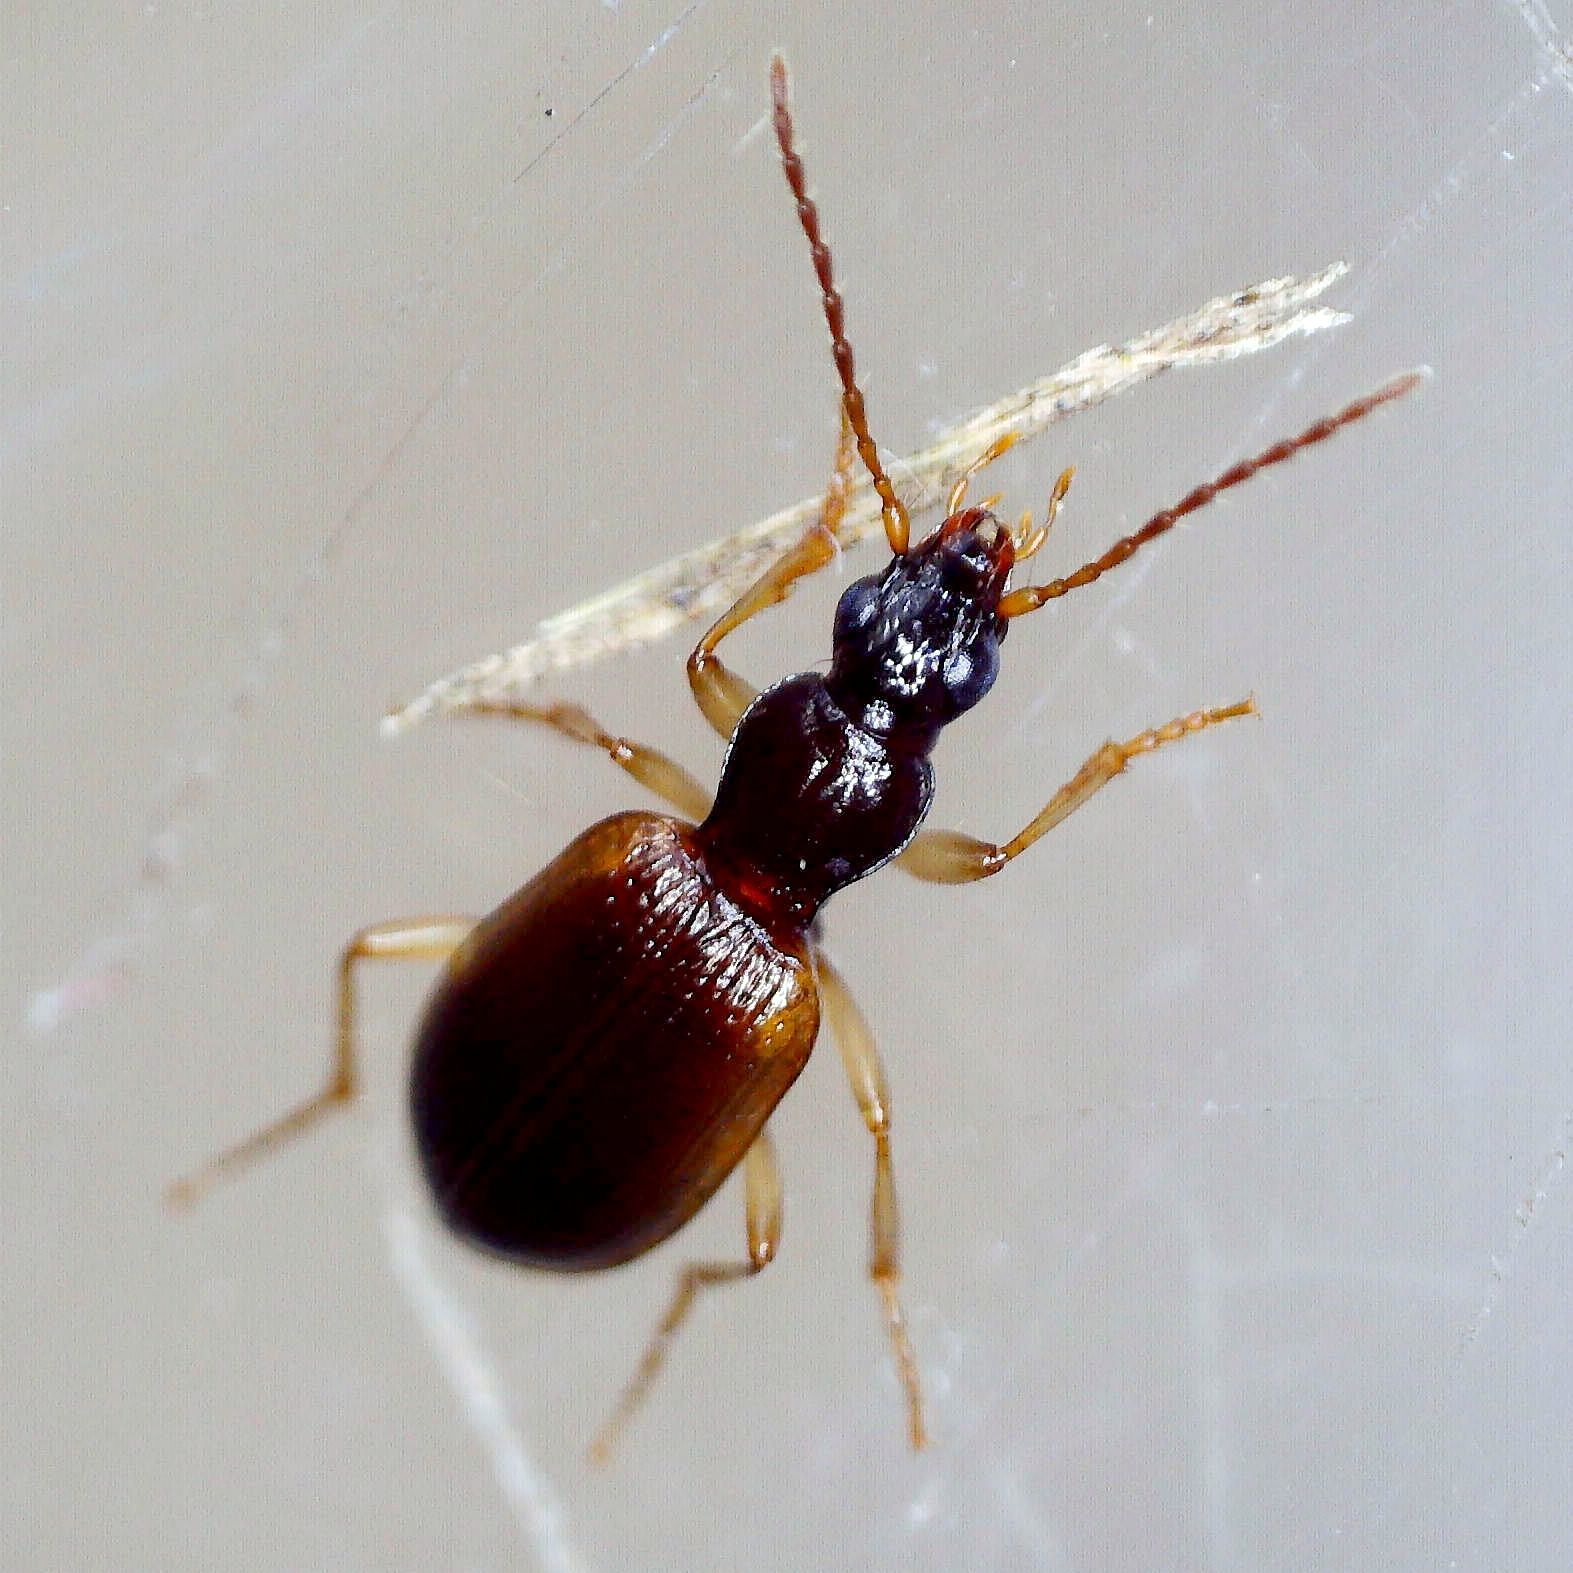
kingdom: Animalia
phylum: Arthropoda
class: Insecta
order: Coleoptera
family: Carabidae
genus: Oxypselaphus
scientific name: Oxypselaphus obscurus
